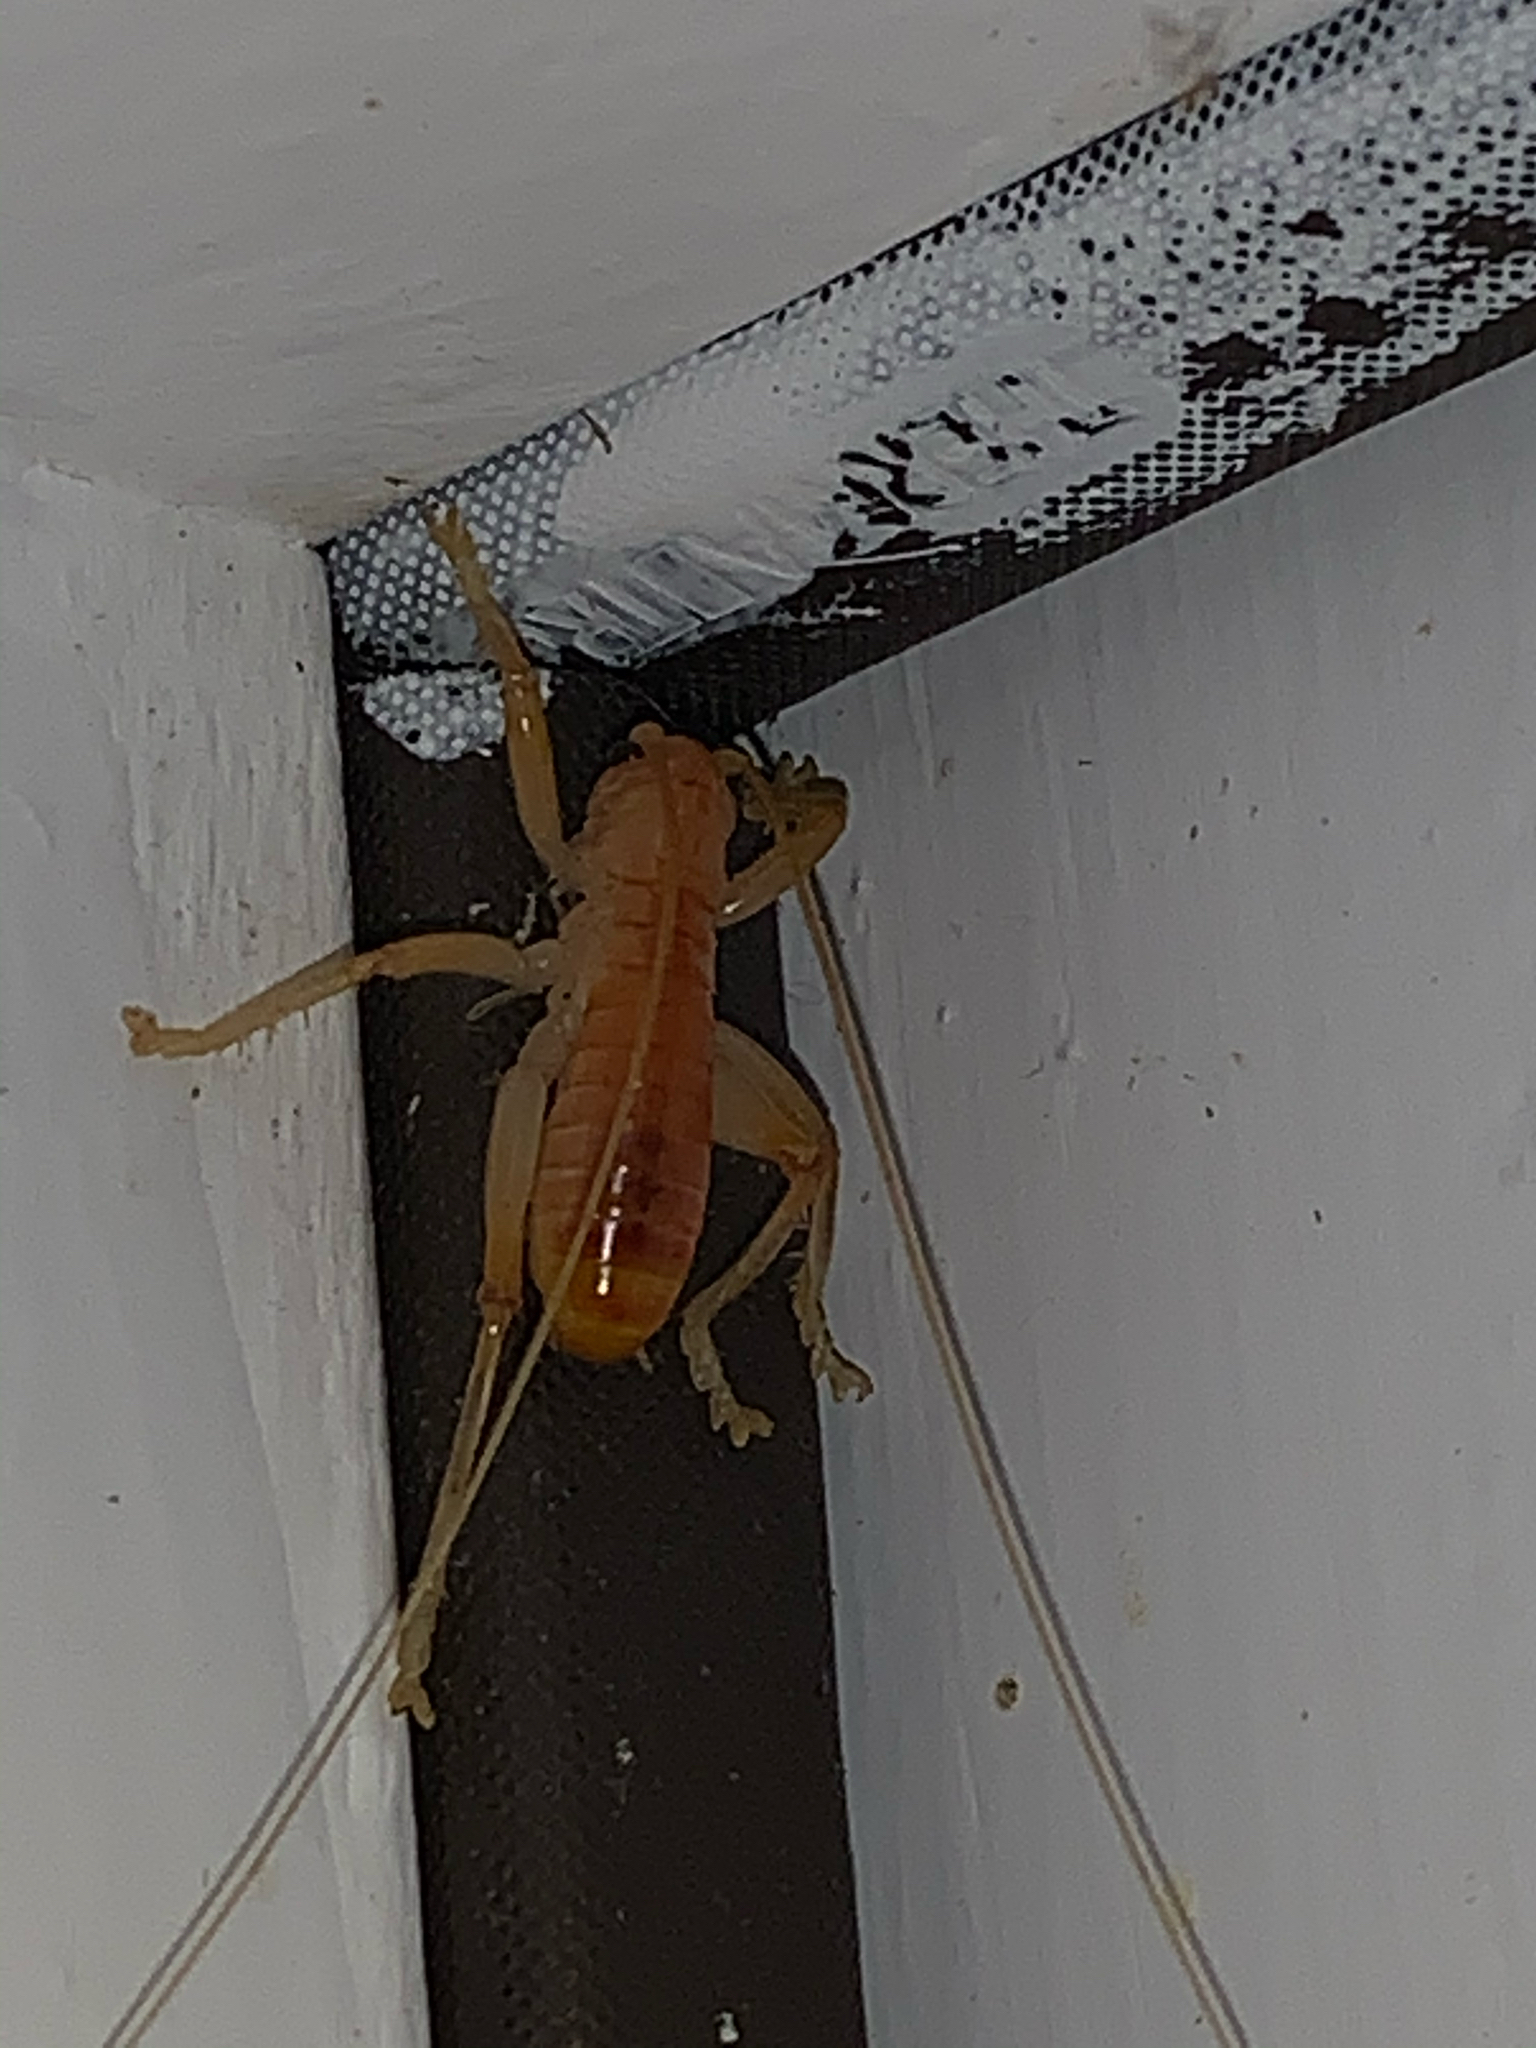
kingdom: Animalia
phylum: Arthropoda
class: Insecta
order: Orthoptera
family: Gryllacrididae
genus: Camptonotus
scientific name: Camptonotus carolinensis
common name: Carolina leaf-roller
